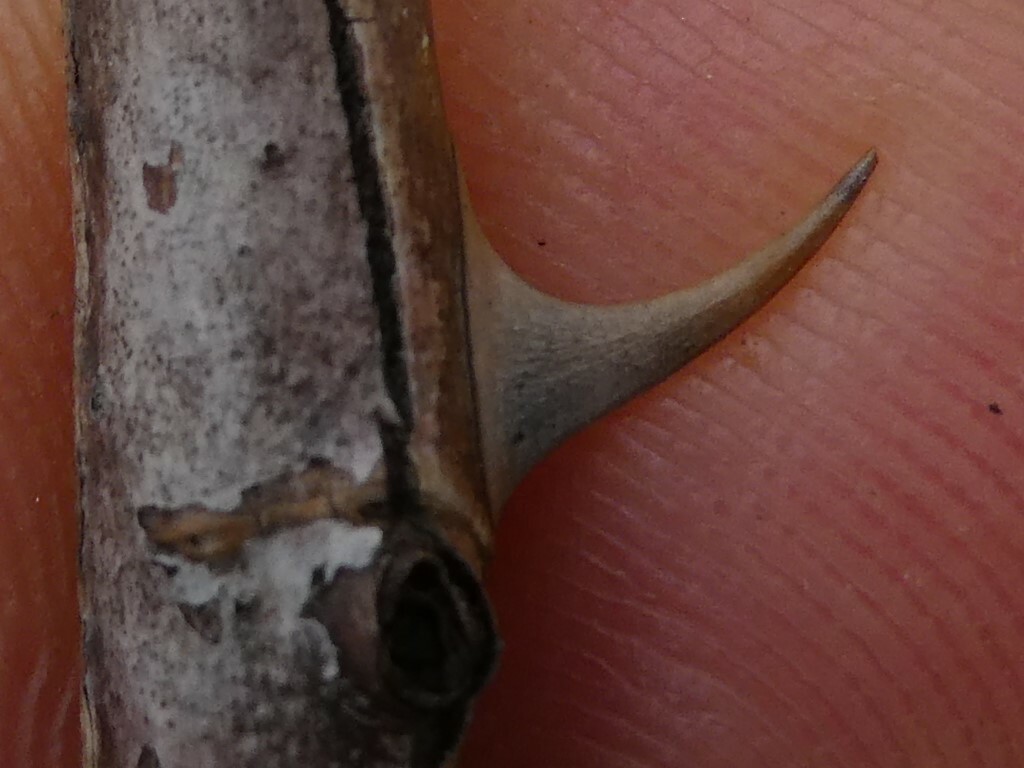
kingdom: Plantae
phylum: Tracheophyta
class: Magnoliopsida
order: Rosales
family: Rosaceae
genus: Rosa
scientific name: Rosa multiflora
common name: Multiflora rose
